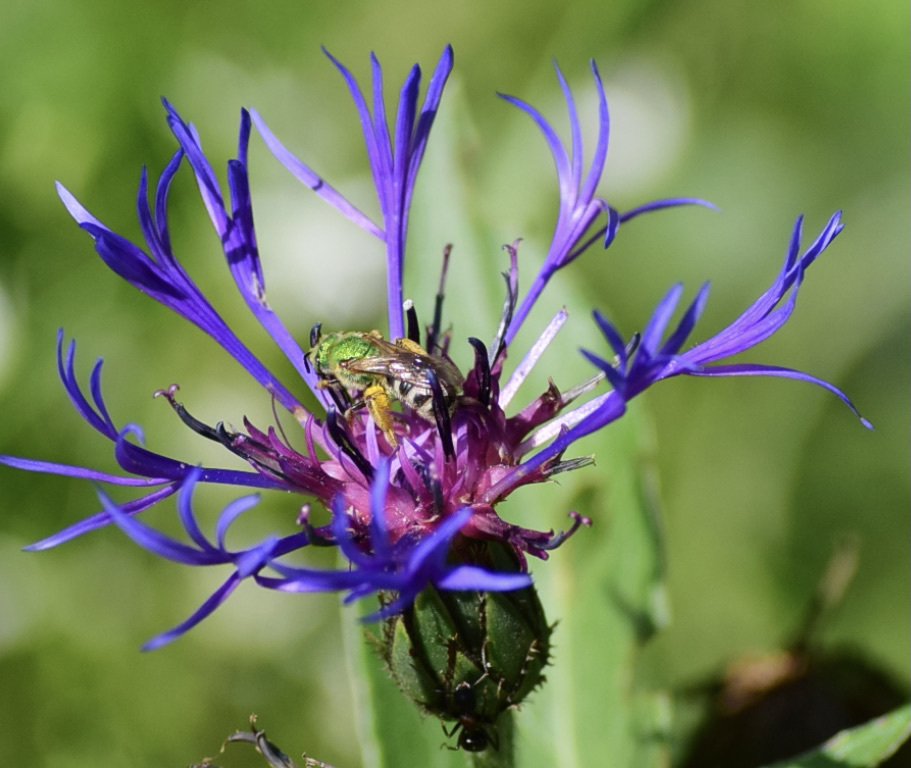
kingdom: Animalia
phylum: Arthropoda
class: Insecta
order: Hymenoptera
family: Halictidae
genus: Agapostemon
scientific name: Agapostemon virescens
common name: Bicolored striped sweat bee
